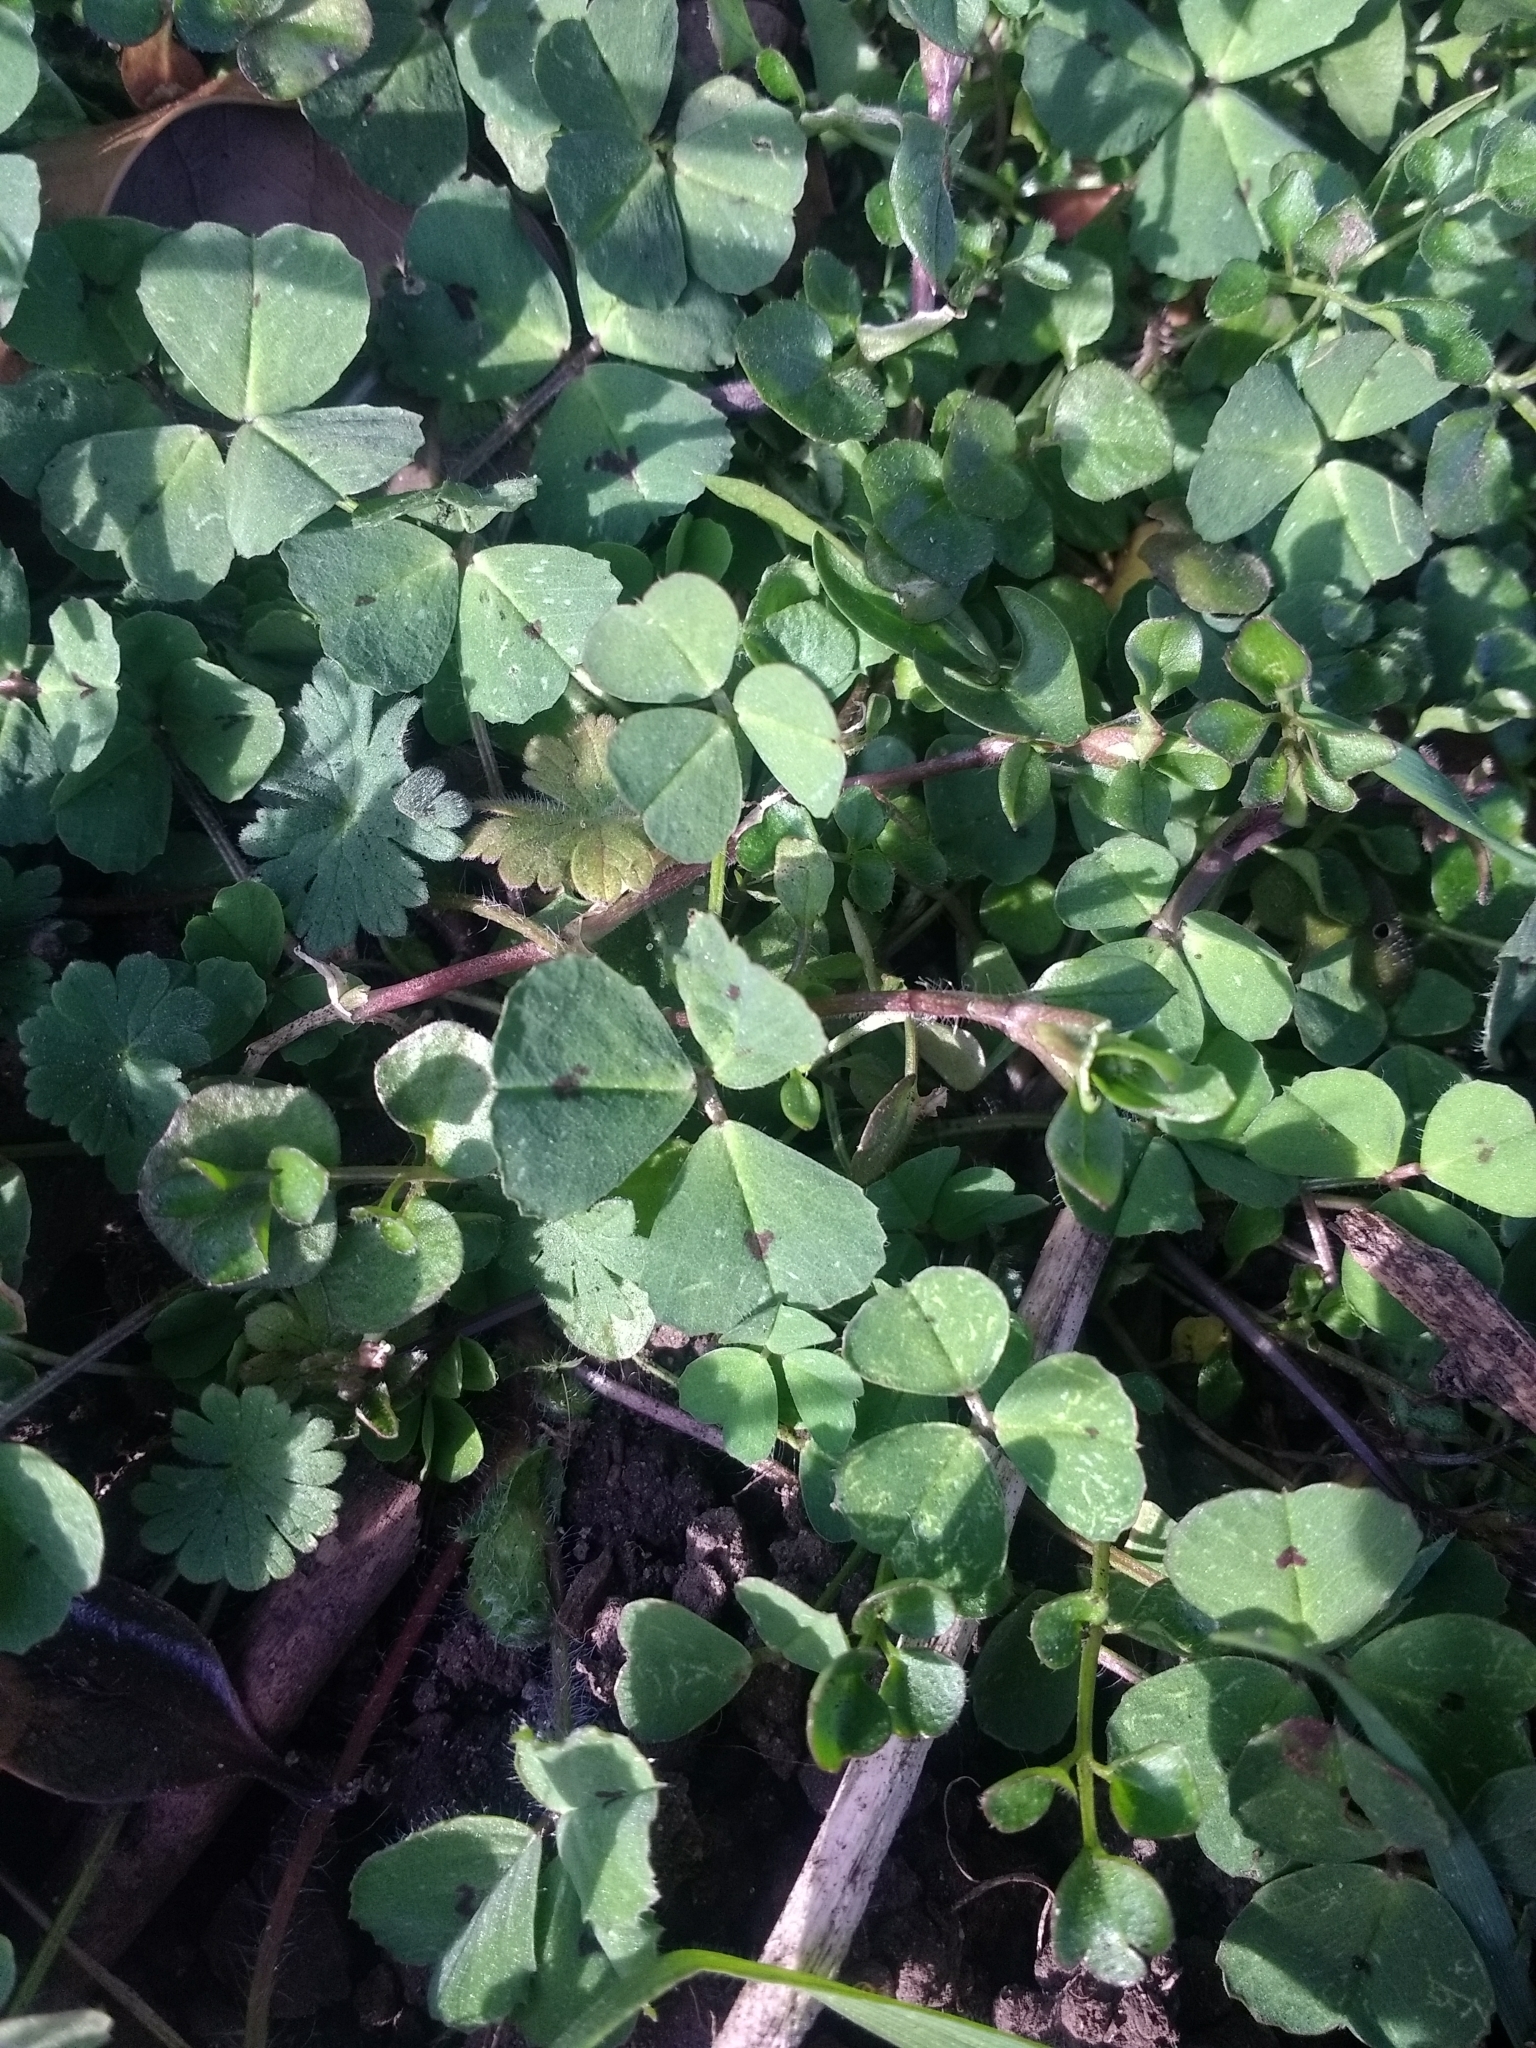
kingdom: Plantae
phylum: Tracheophyta
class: Magnoliopsida
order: Fabales
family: Fabaceae
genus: Medicago
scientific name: Medicago arabica
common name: Spotted medick
